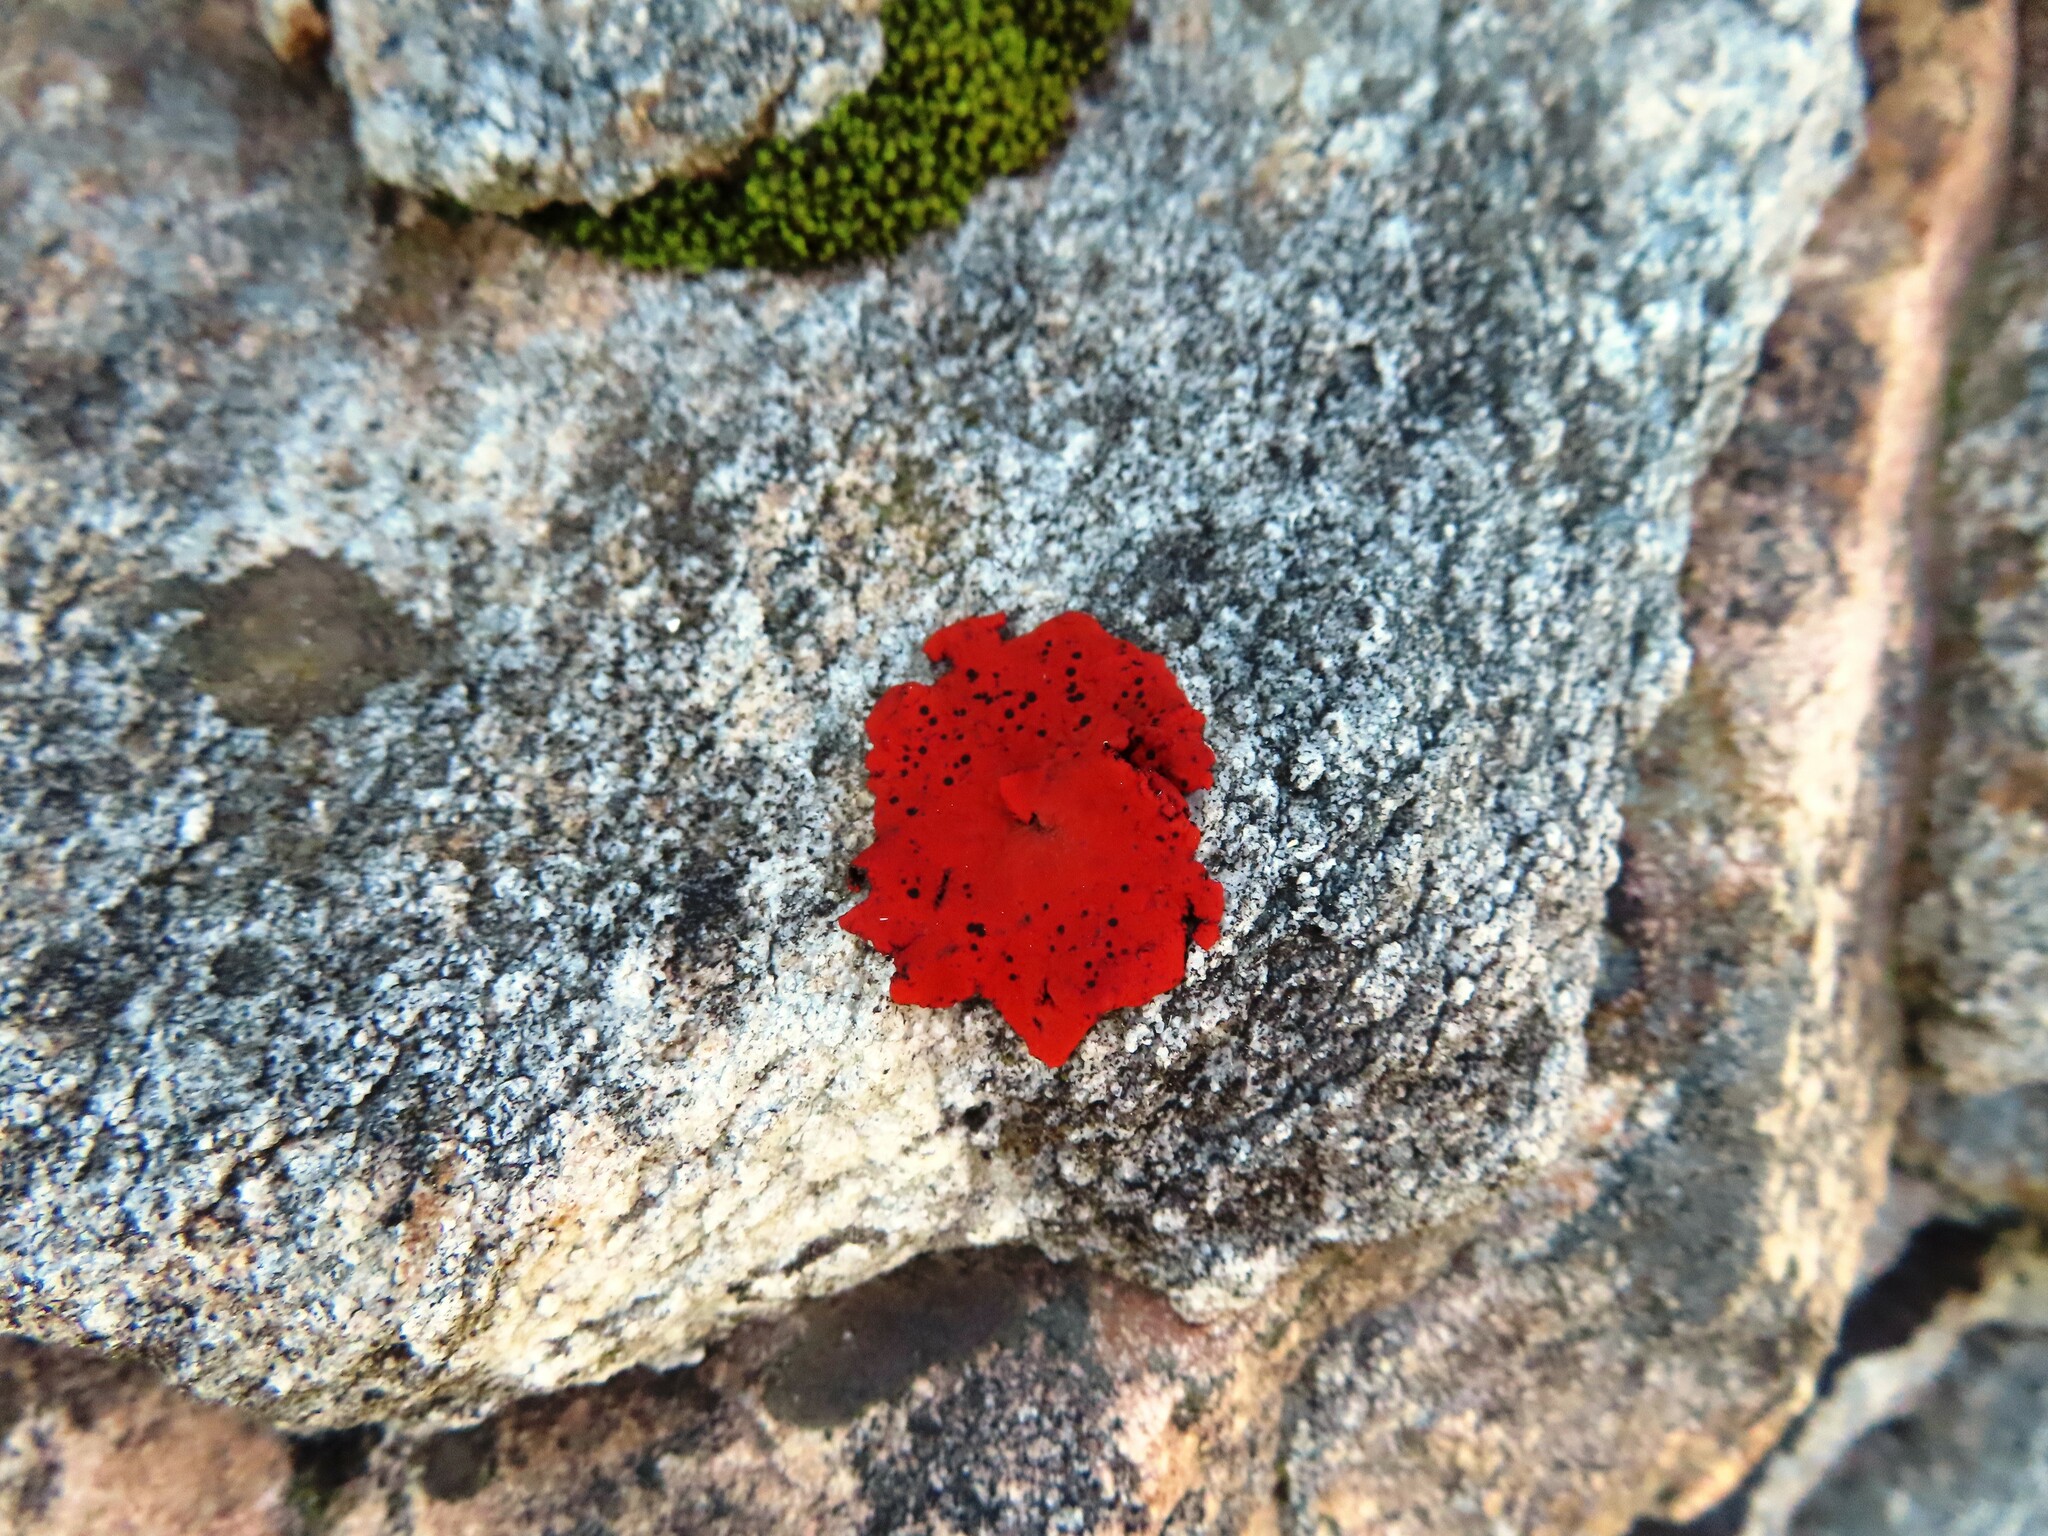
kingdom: Fungi
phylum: Ascomycota
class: Lecanoromycetes
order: Umbilicariales
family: Umbilicariaceae
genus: Lasallia
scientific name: Lasallia rubiginosa
